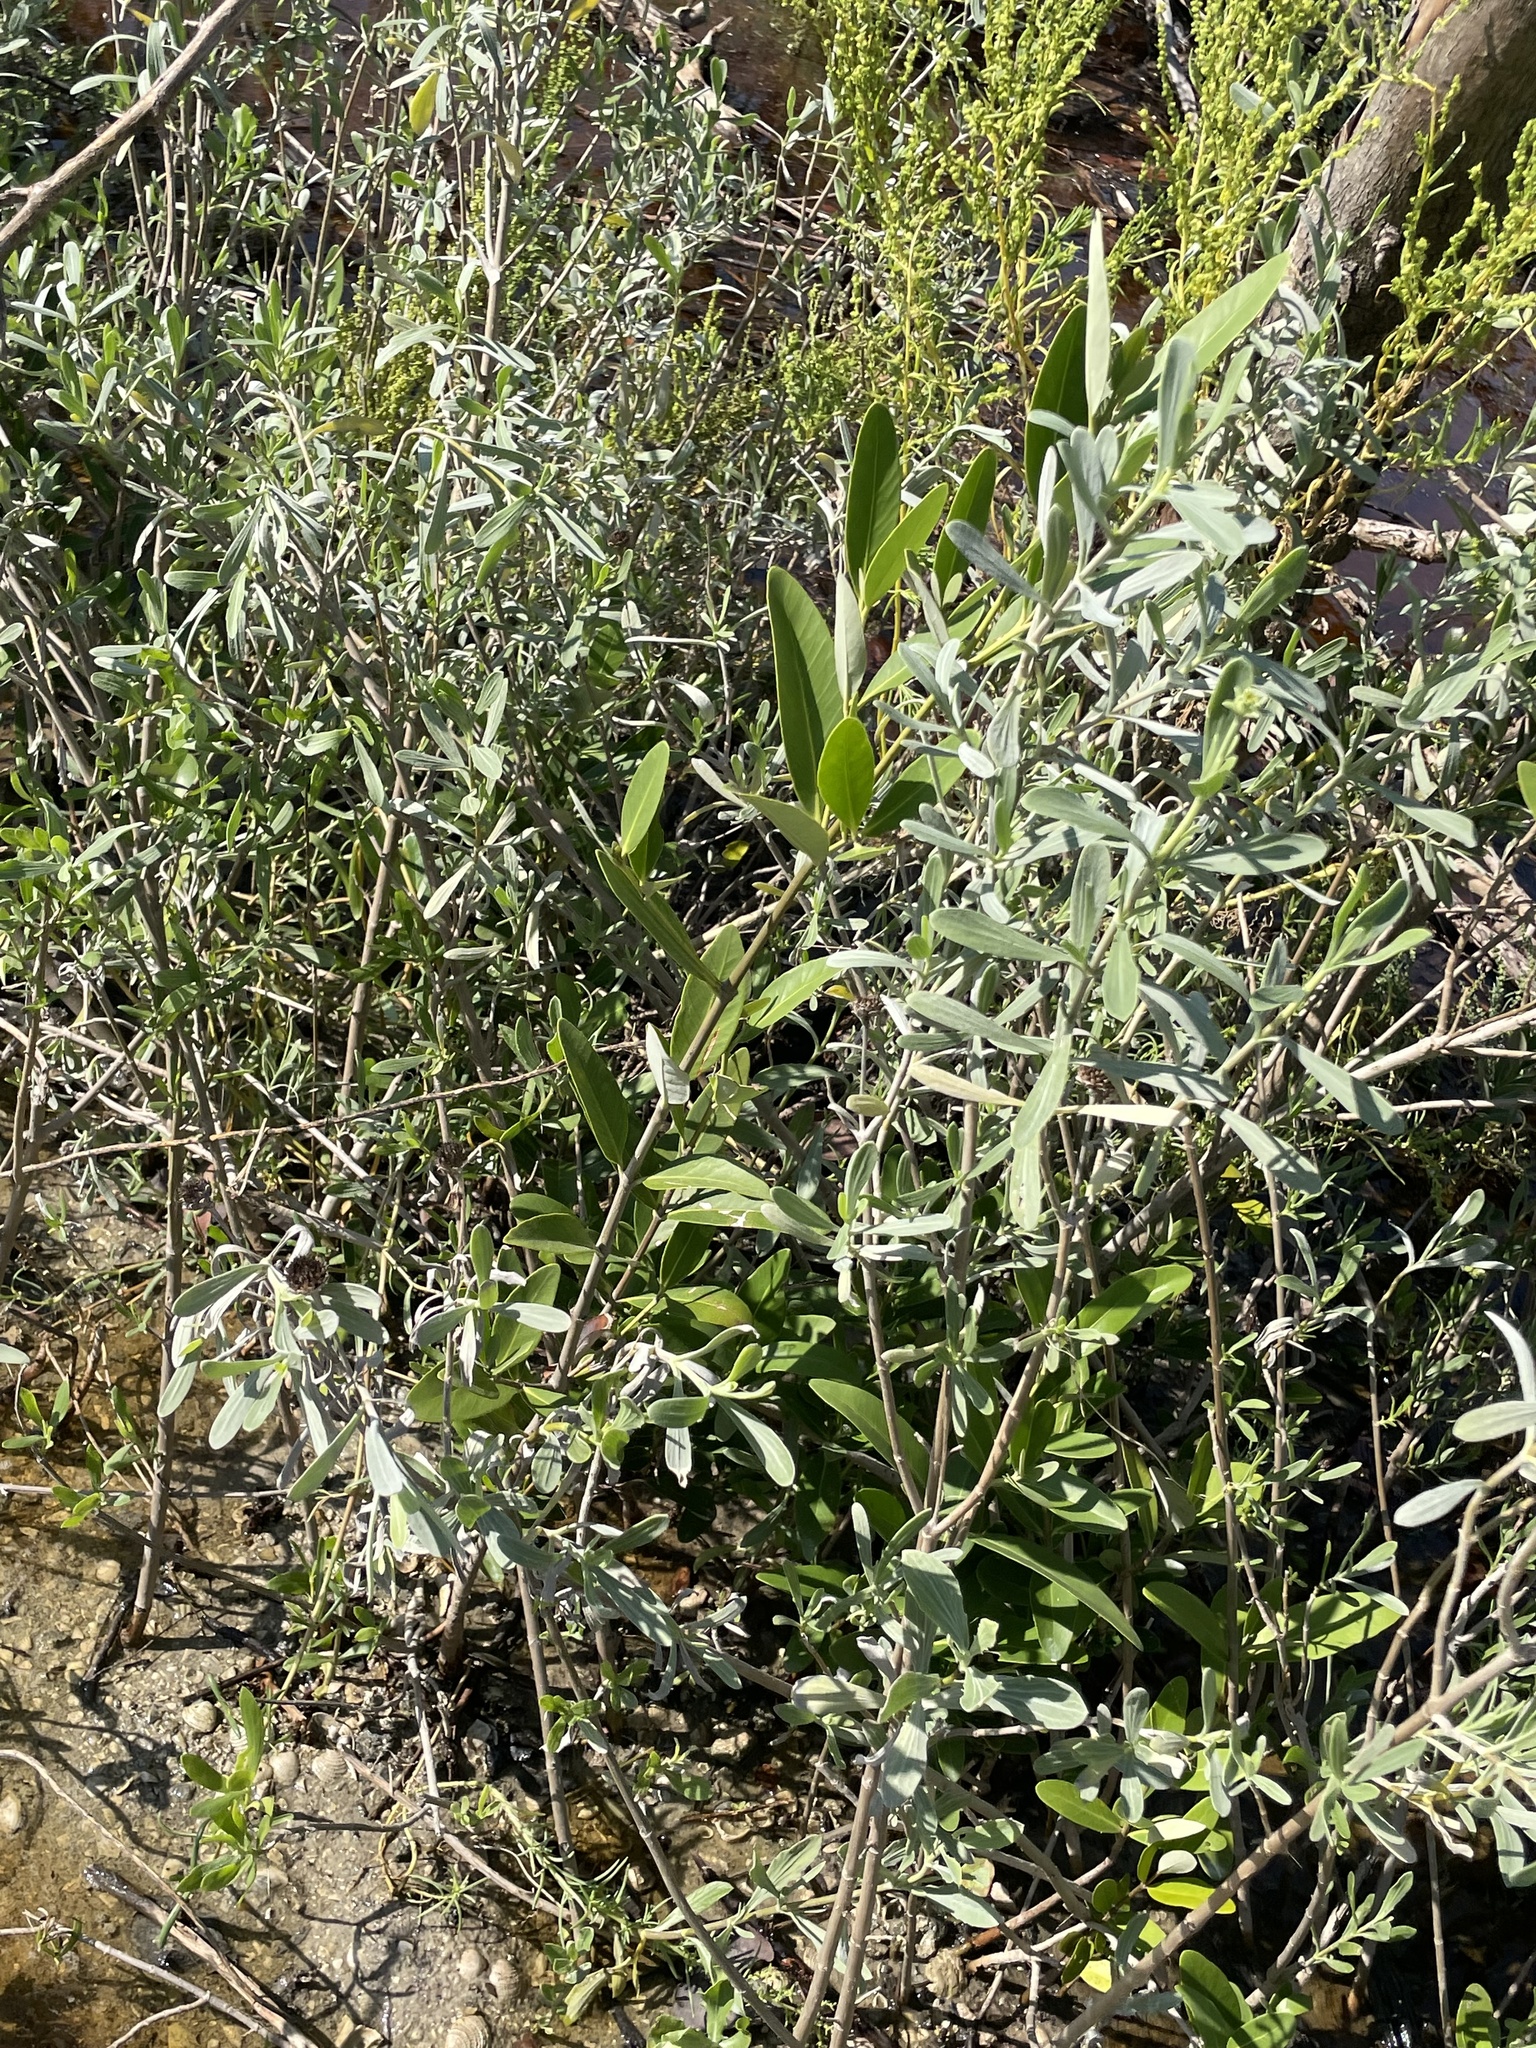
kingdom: Plantae
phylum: Tracheophyta
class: Magnoliopsida
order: Asterales
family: Asteraceae
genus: Borrichia
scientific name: Borrichia frutescens
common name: Sea oxeye
